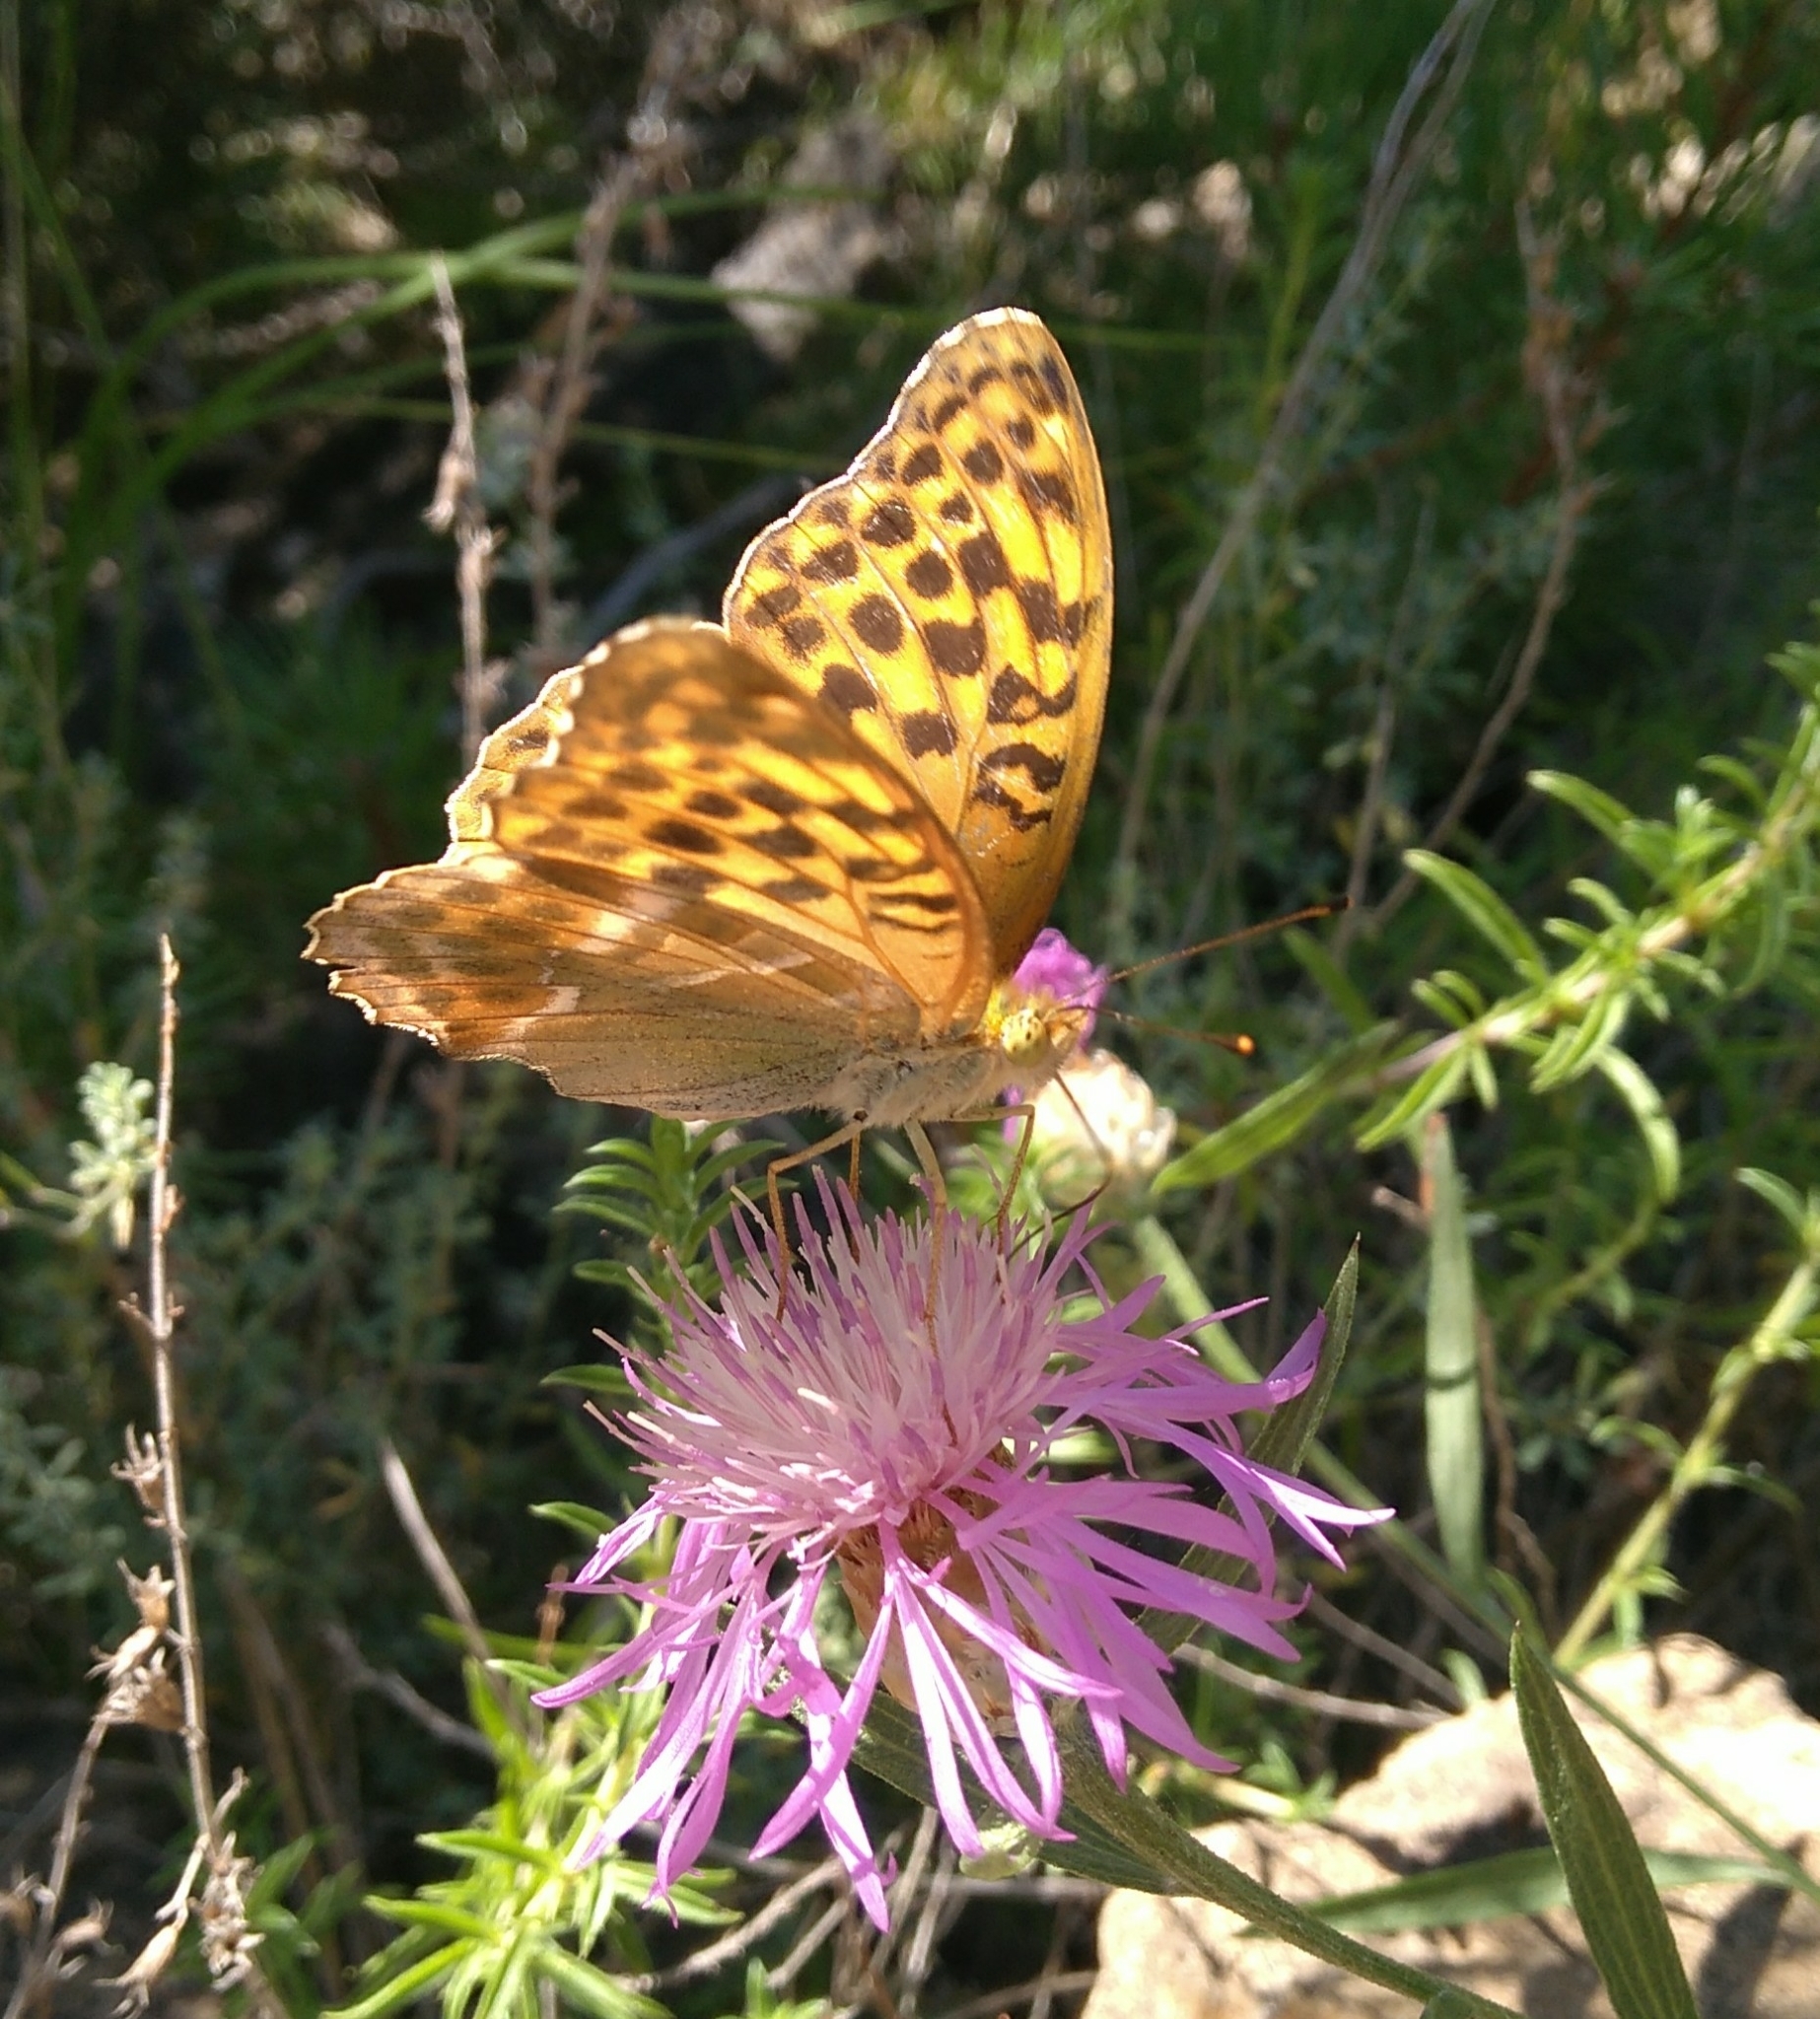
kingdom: Animalia
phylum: Arthropoda
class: Insecta
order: Lepidoptera
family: Nymphalidae
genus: Argynnis
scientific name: Argynnis paphia
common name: Silver-washed fritillary
